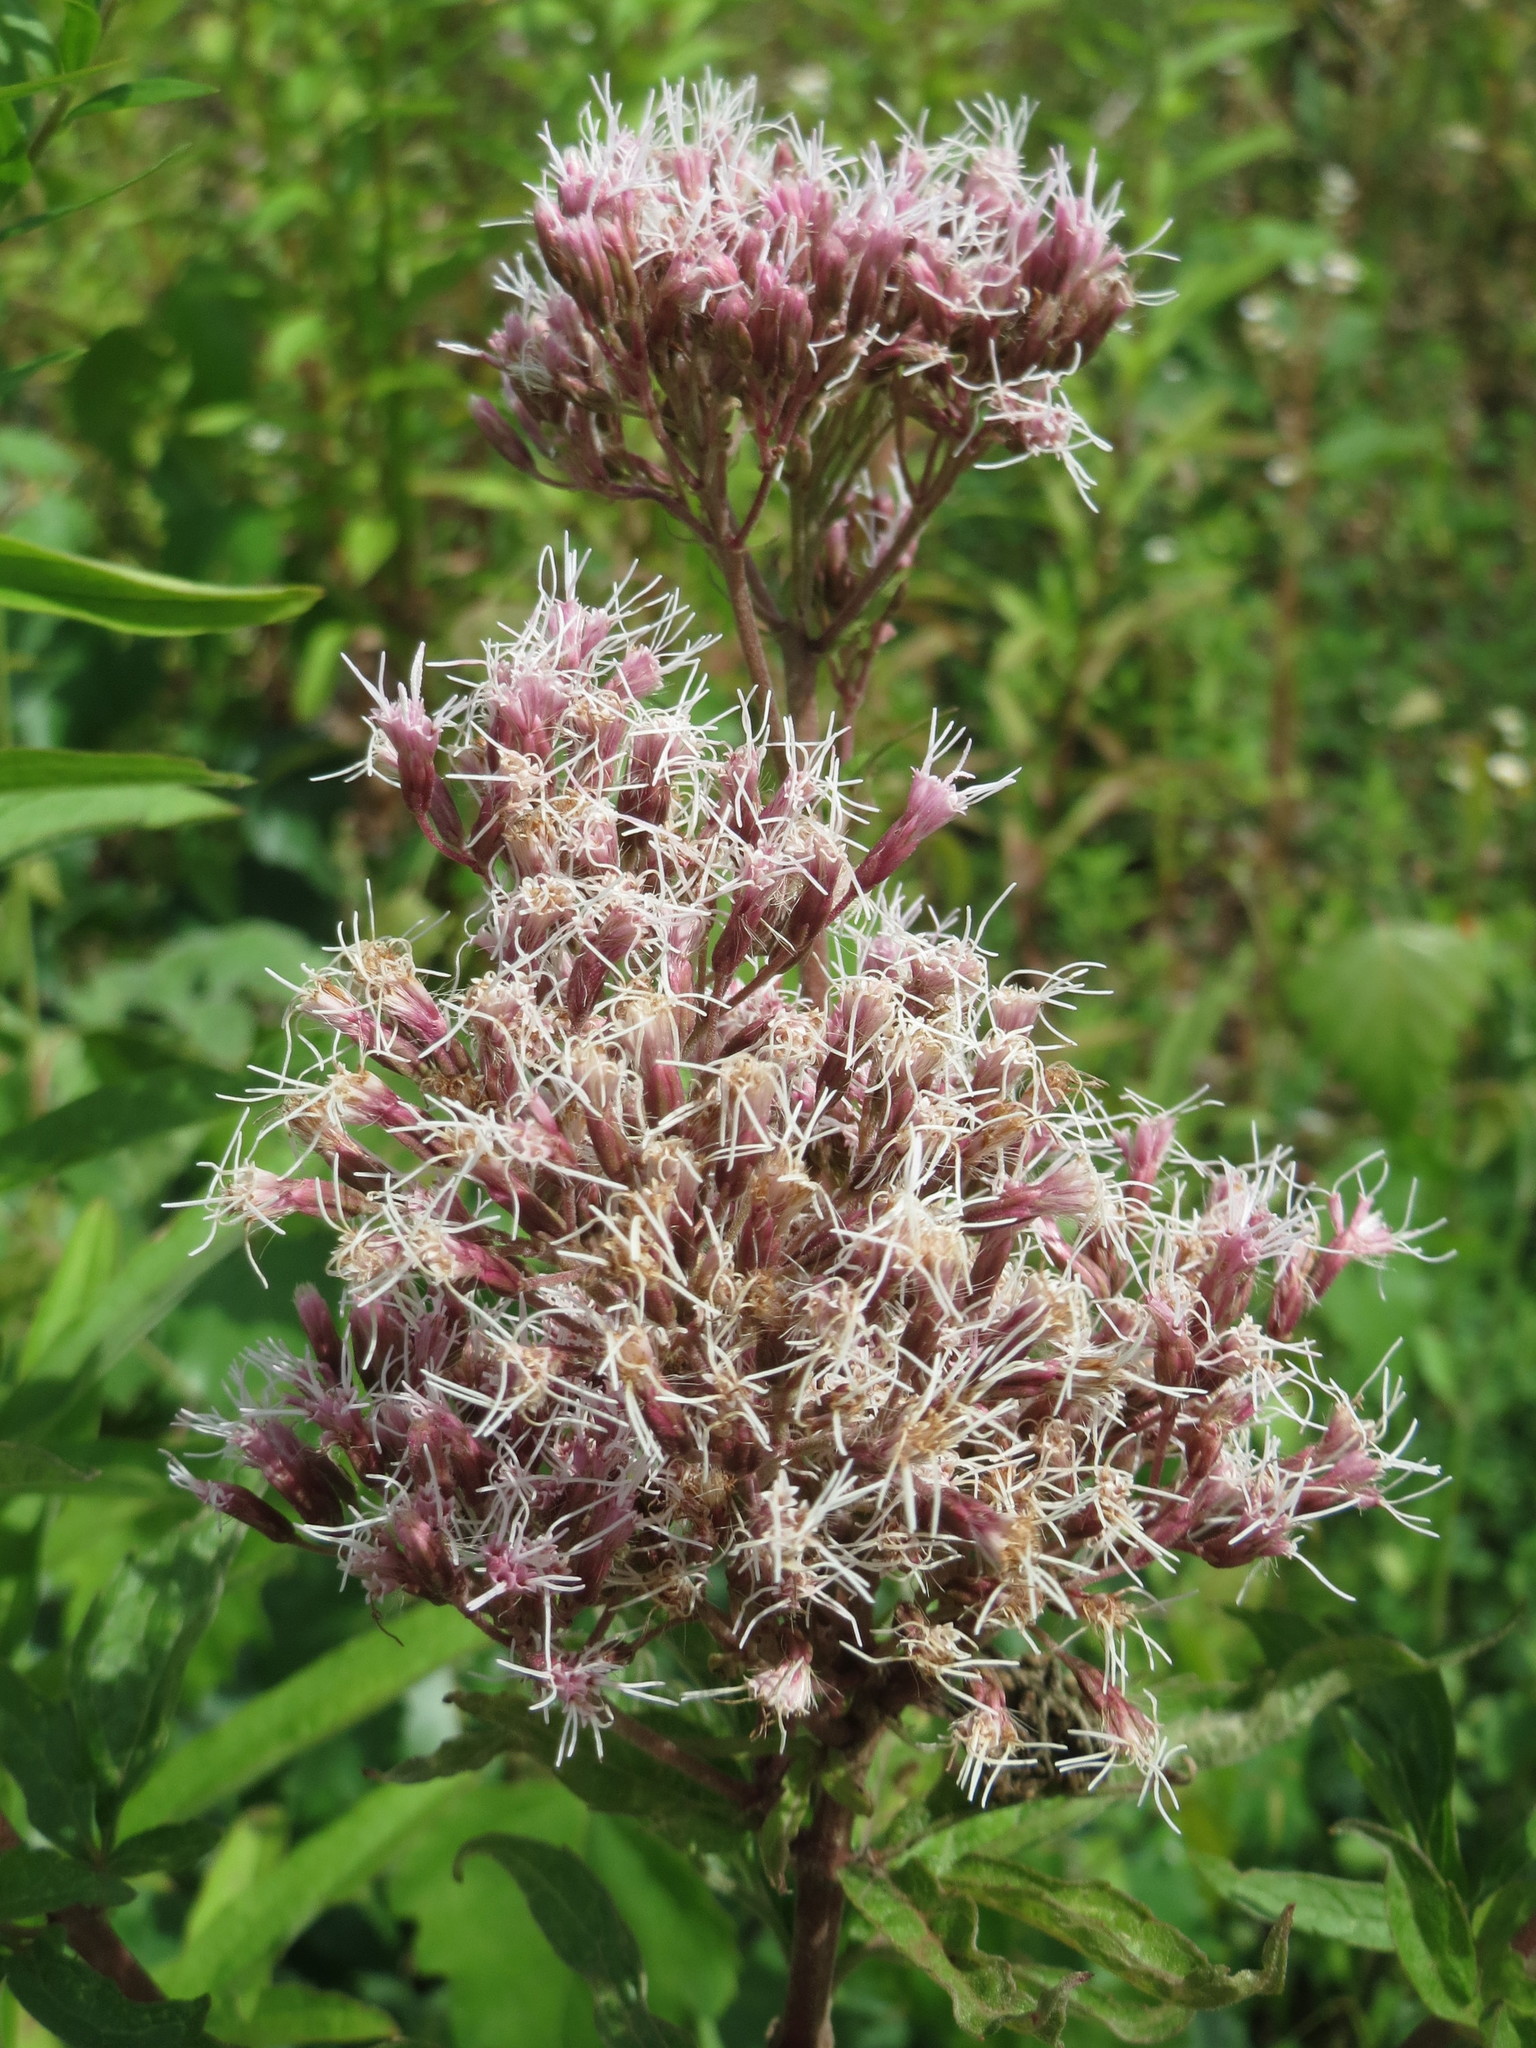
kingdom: Plantae
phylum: Tracheophyta
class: Magnoliopsida
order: Asterales
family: Asteraceae
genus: Eupatorium
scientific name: Eupatorium cannabinum
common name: Hemp-agrimony
